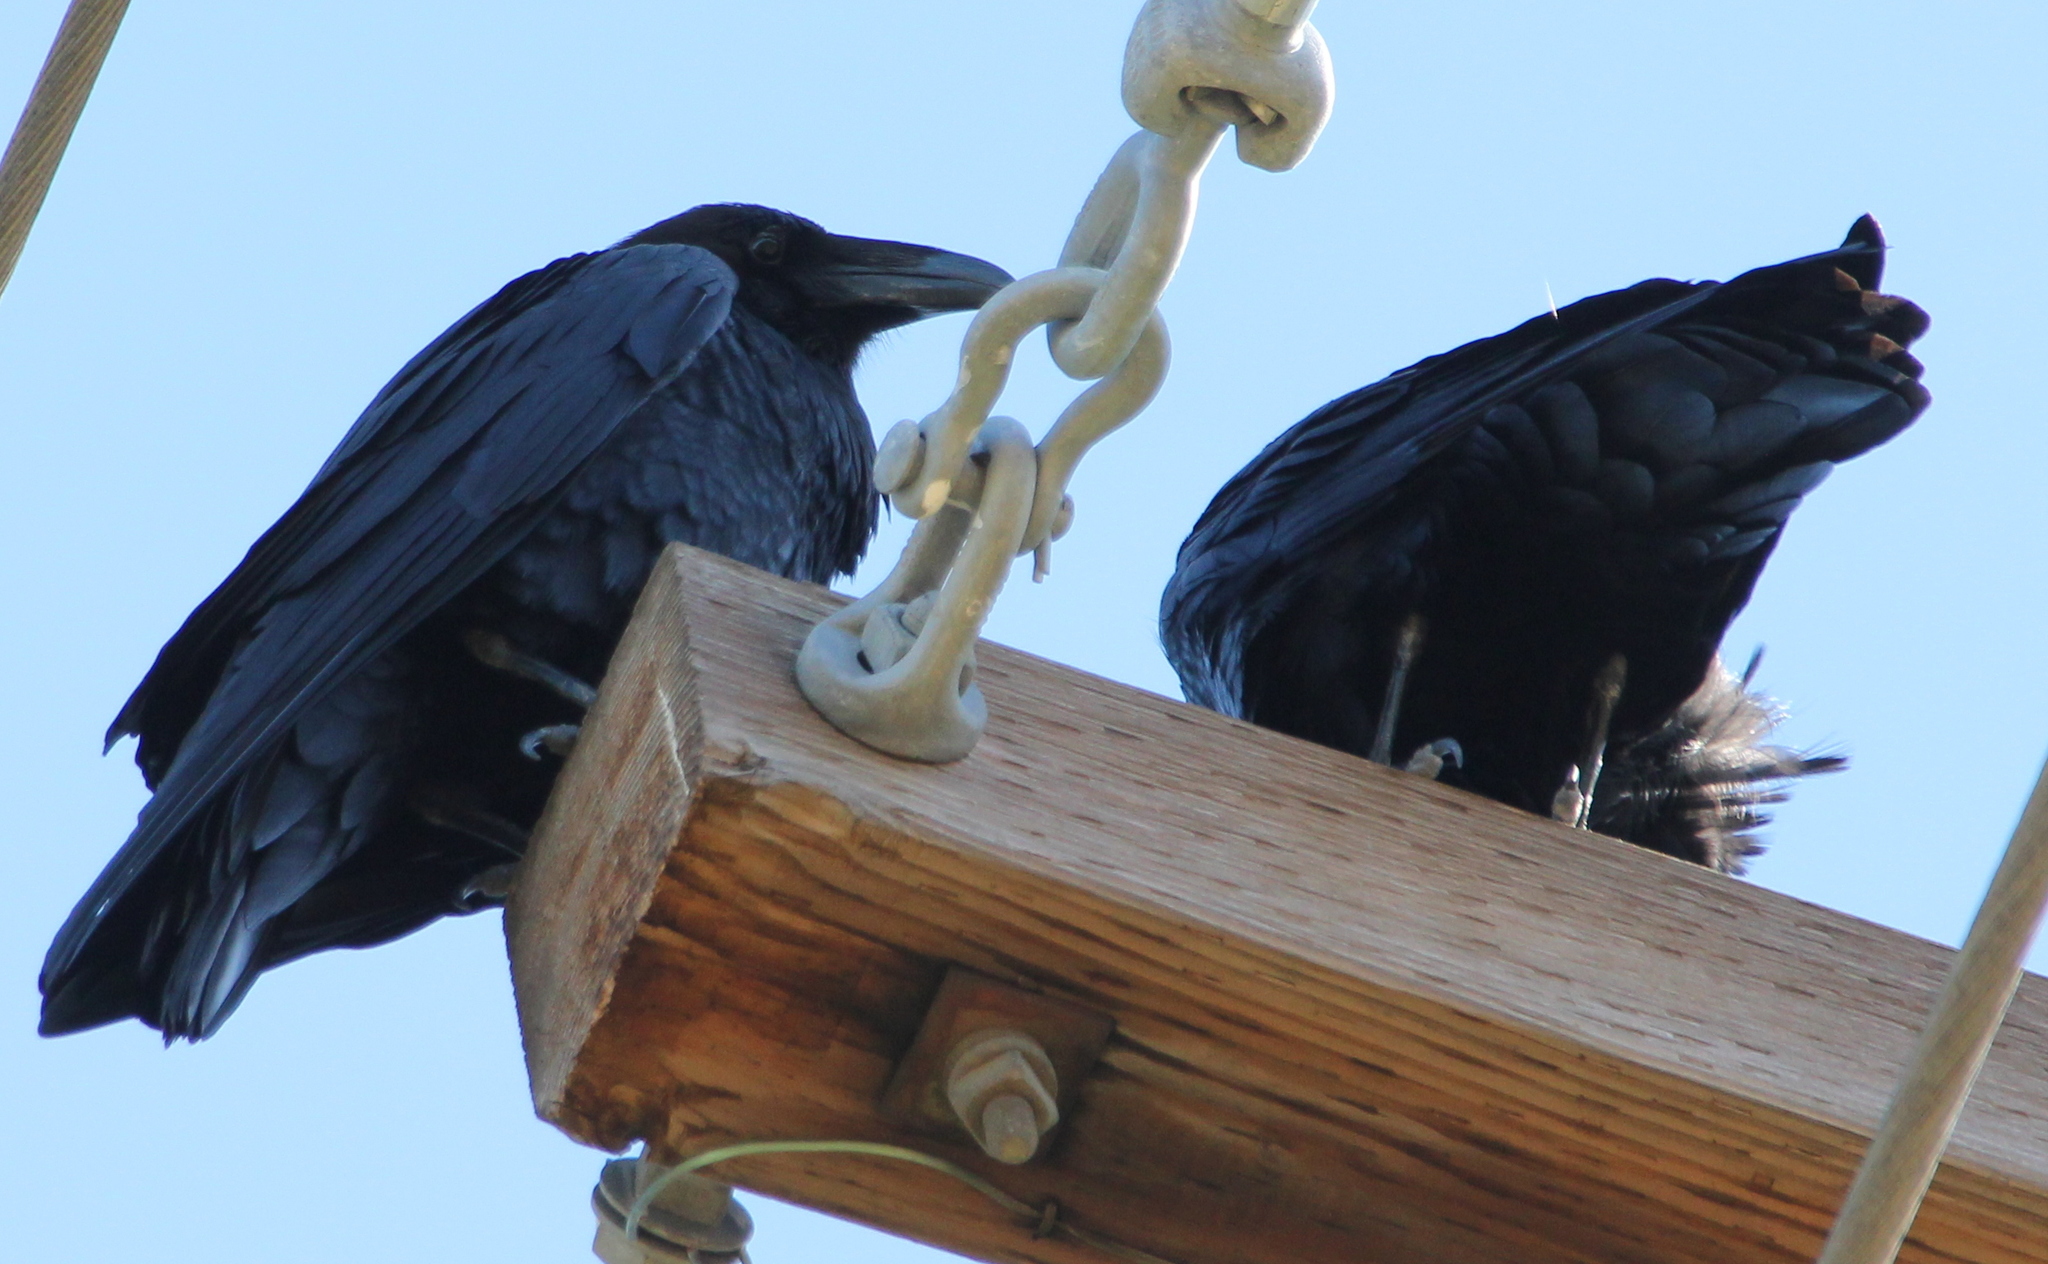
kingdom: Animalia
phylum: Chordata
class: Aves
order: Passeriformes
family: Corvidae
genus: Corvus
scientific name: Corvus corax
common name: Common raven
